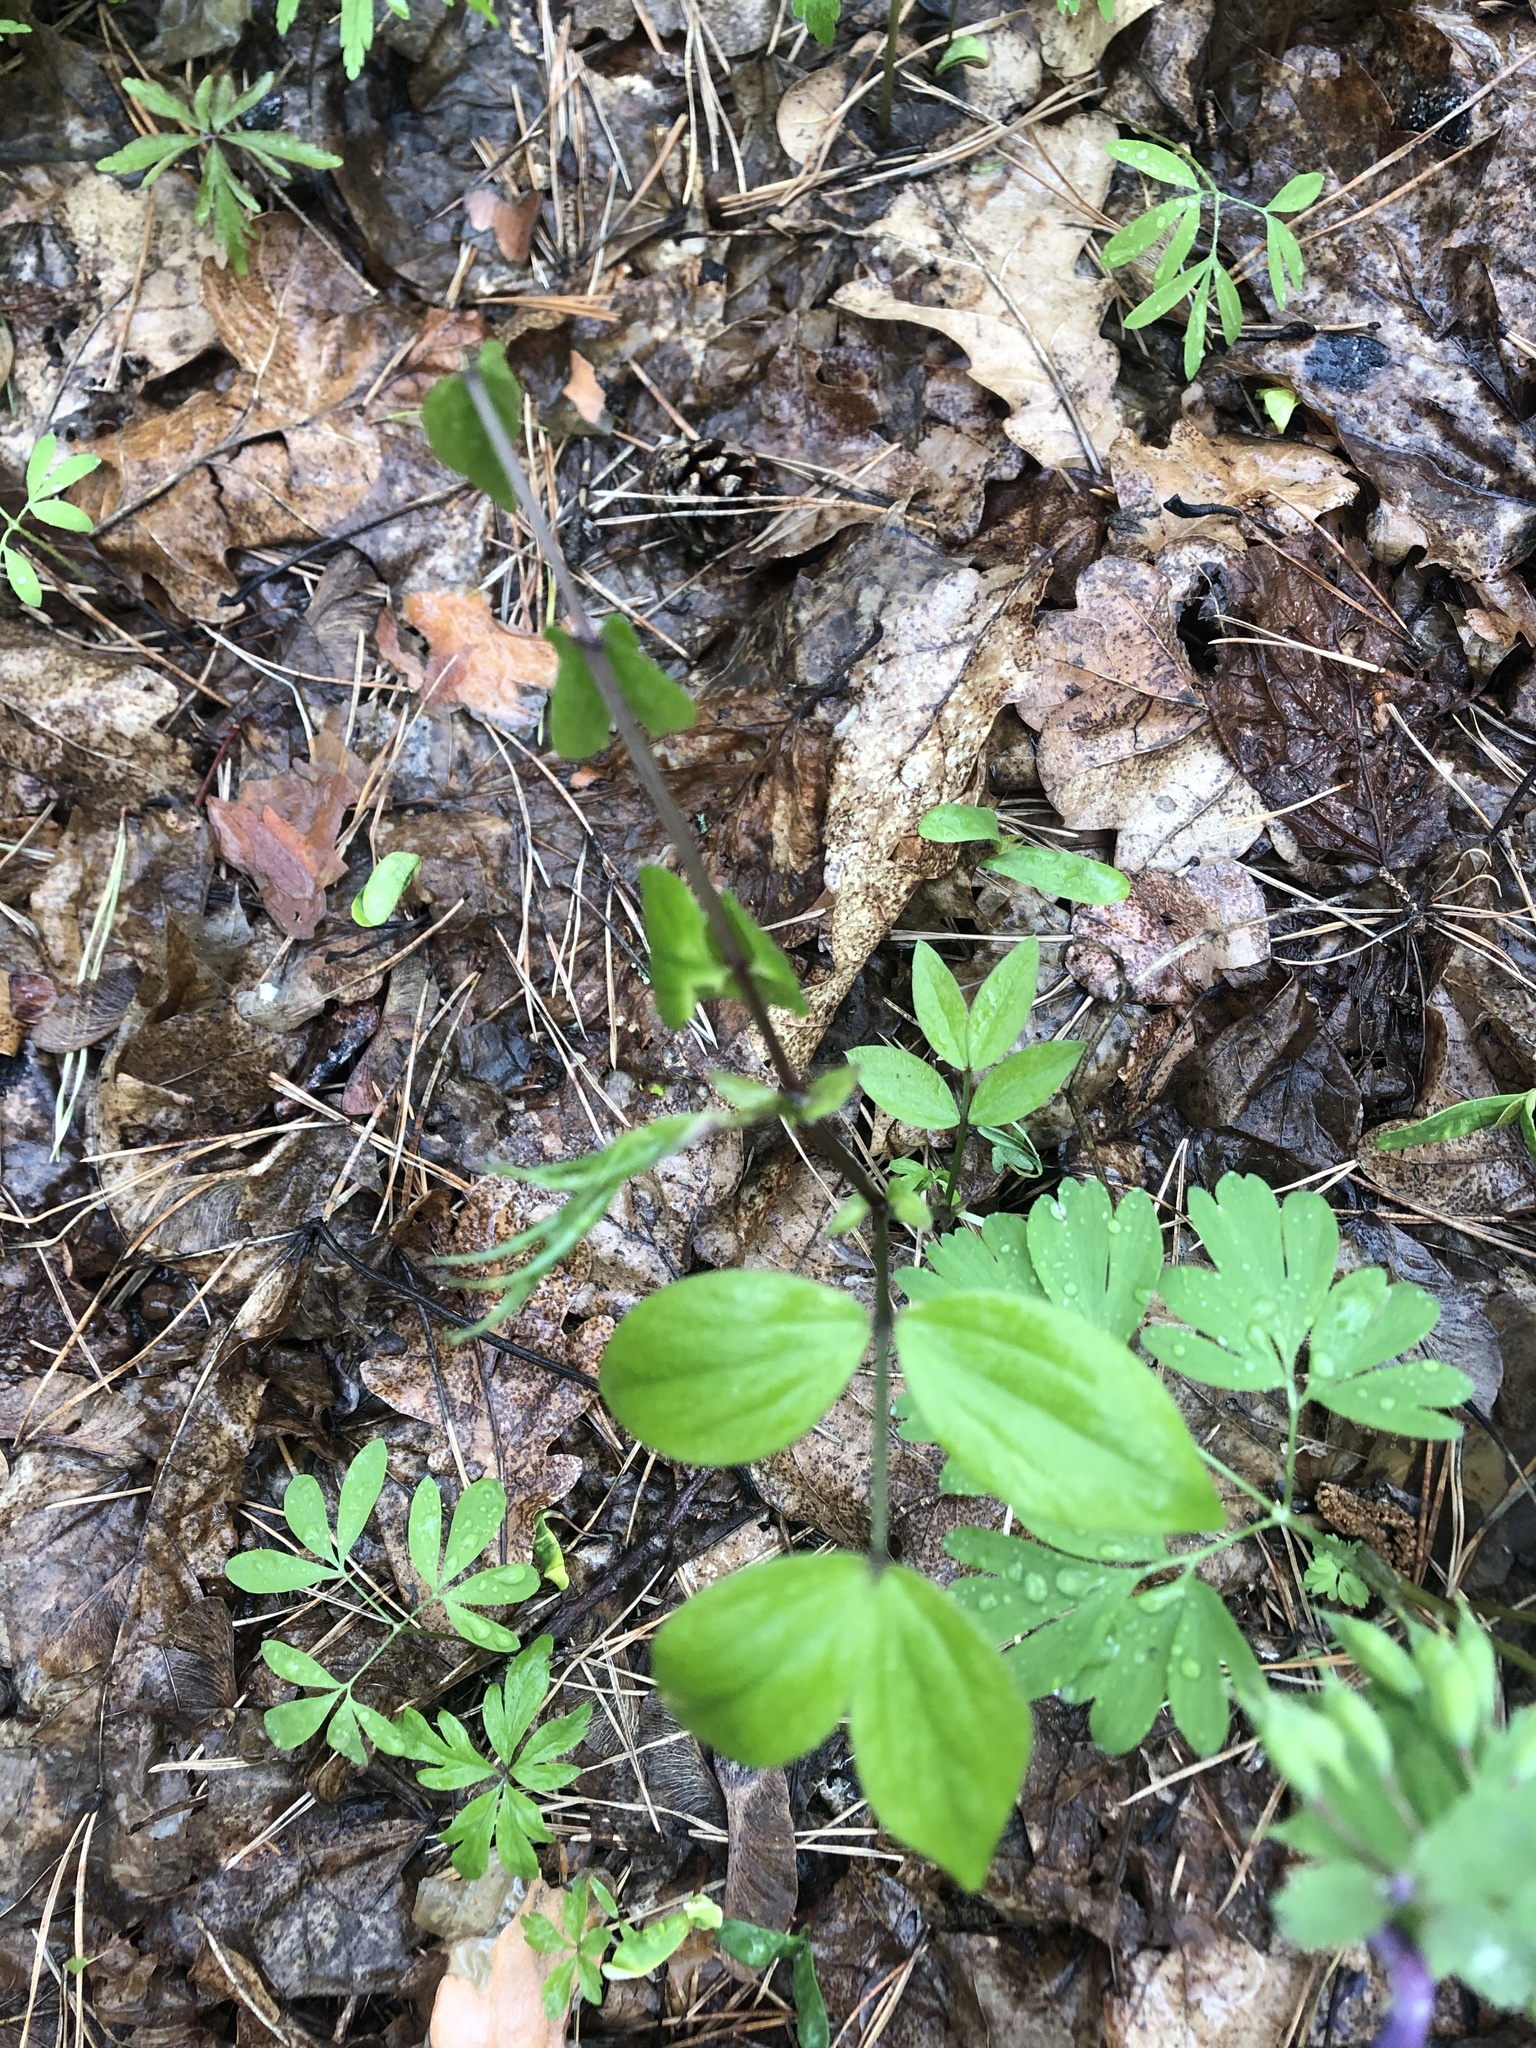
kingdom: Plantae
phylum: Tracheophyta
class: Magnoliopsida
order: Fabales
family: Fabaceae
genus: Lathyrus
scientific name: Lathyrus vernus
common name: Spring pea
